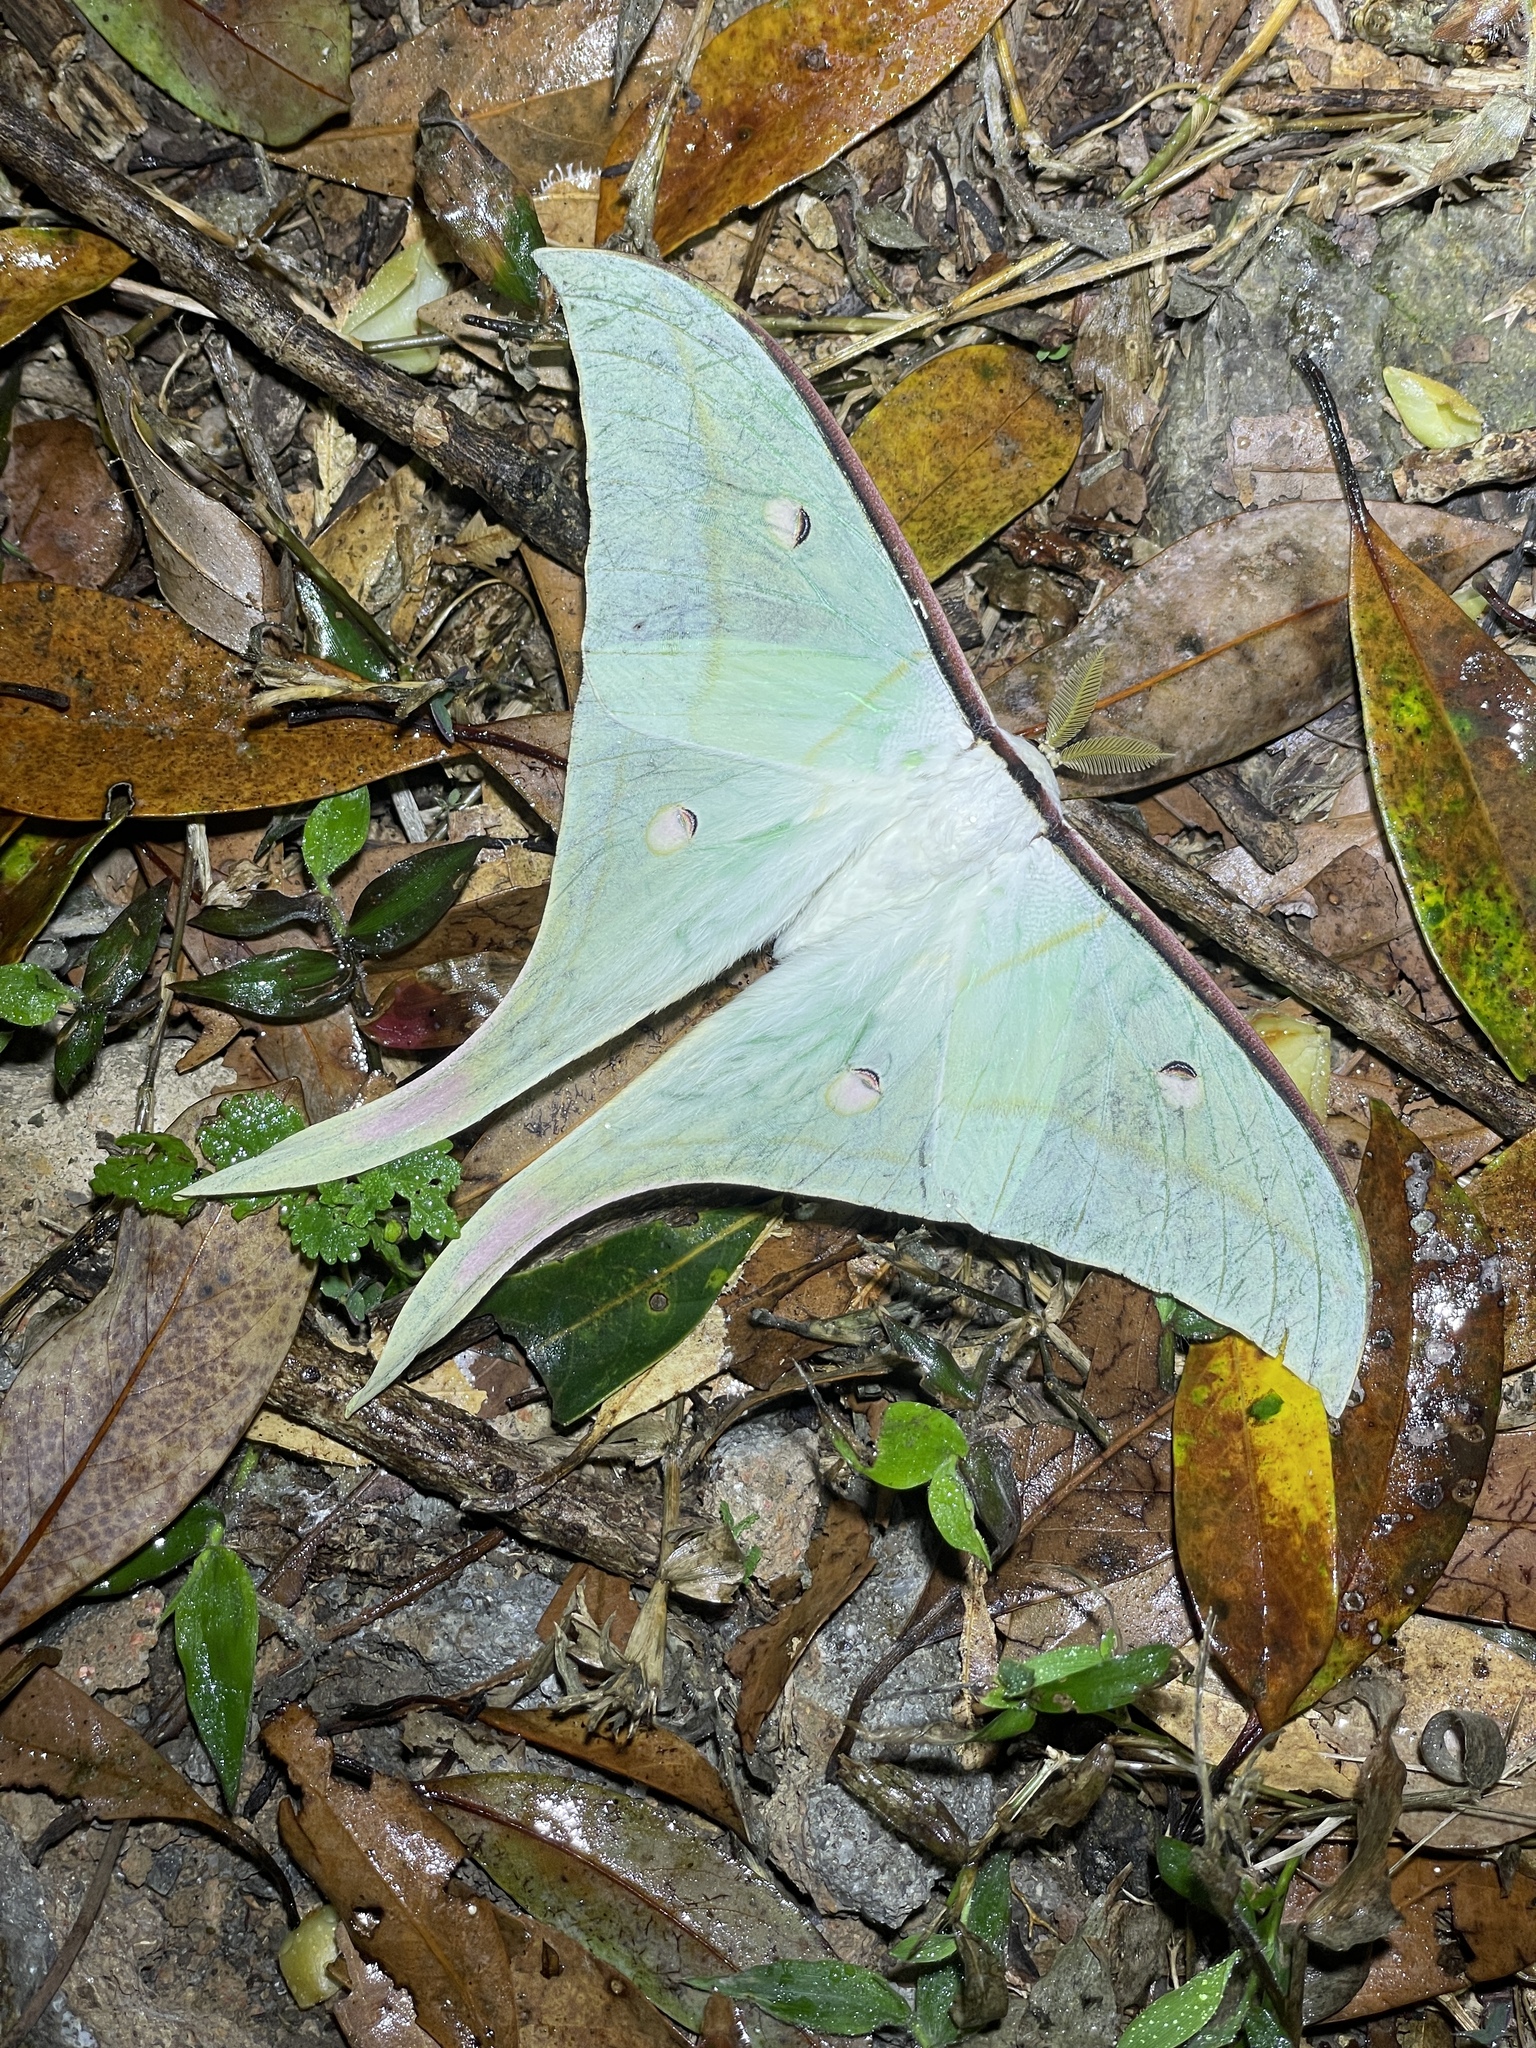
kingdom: Animalia
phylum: Arthropoda
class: Insecta
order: Lepidoptera
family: Saturniidae
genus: Actias
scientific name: Actias ningpoana
